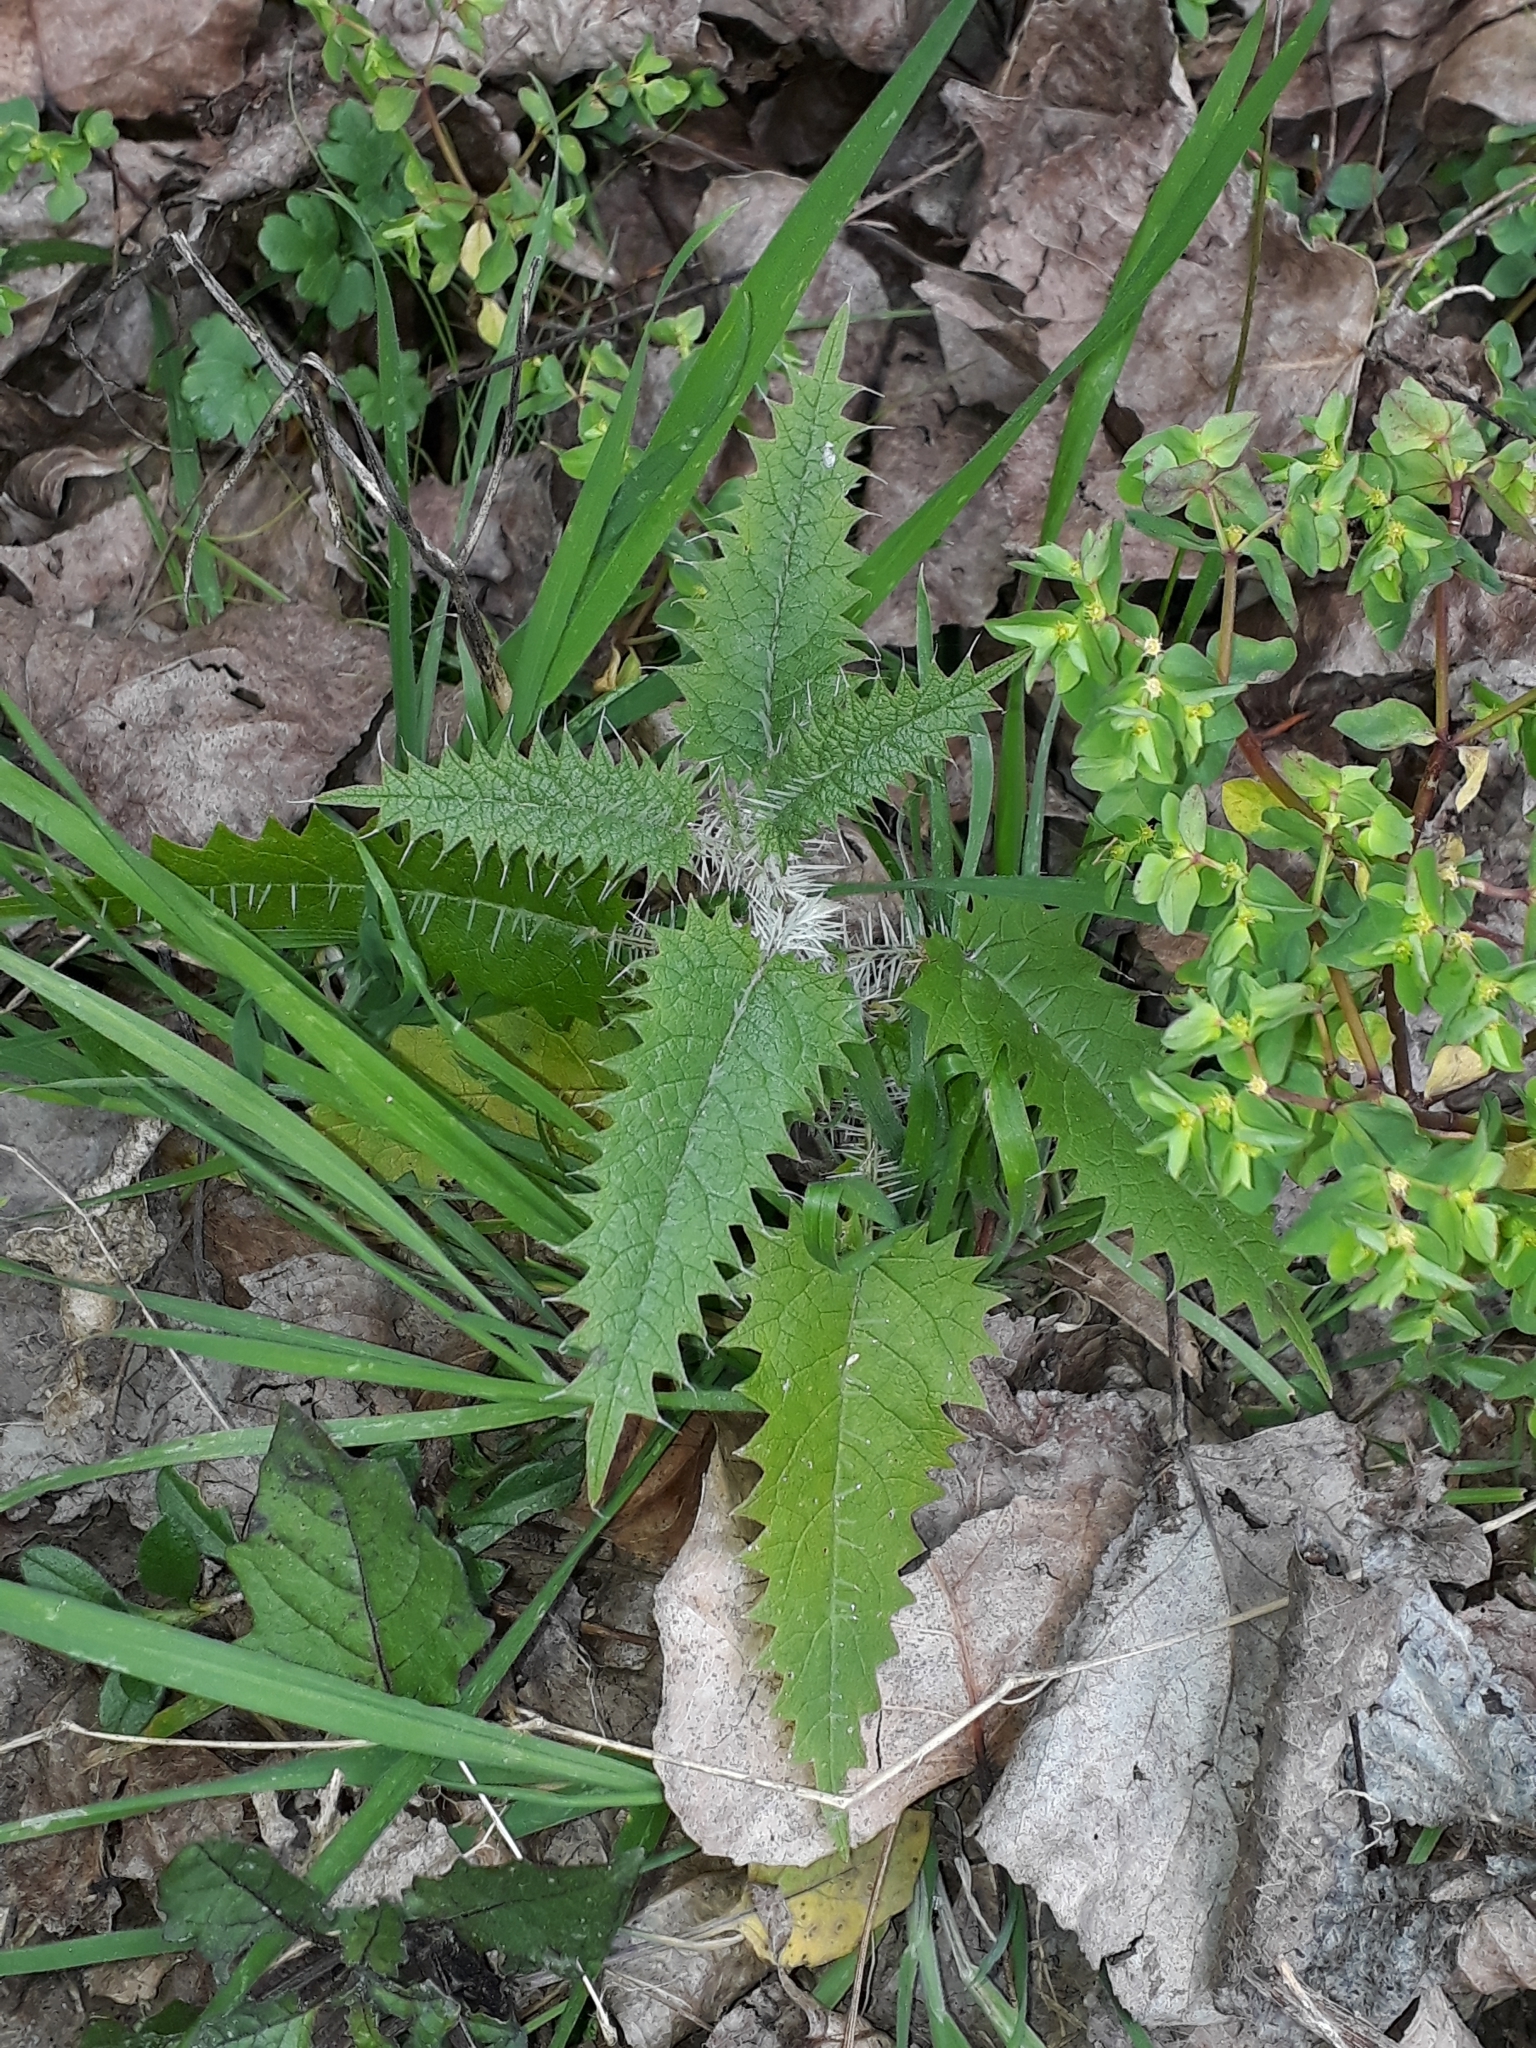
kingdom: Plantae
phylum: Tracheophyta
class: Magnoliopsida
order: Rosales
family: Urticaceae
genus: Urtica
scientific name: Urtica ferox
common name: Tree nettle
